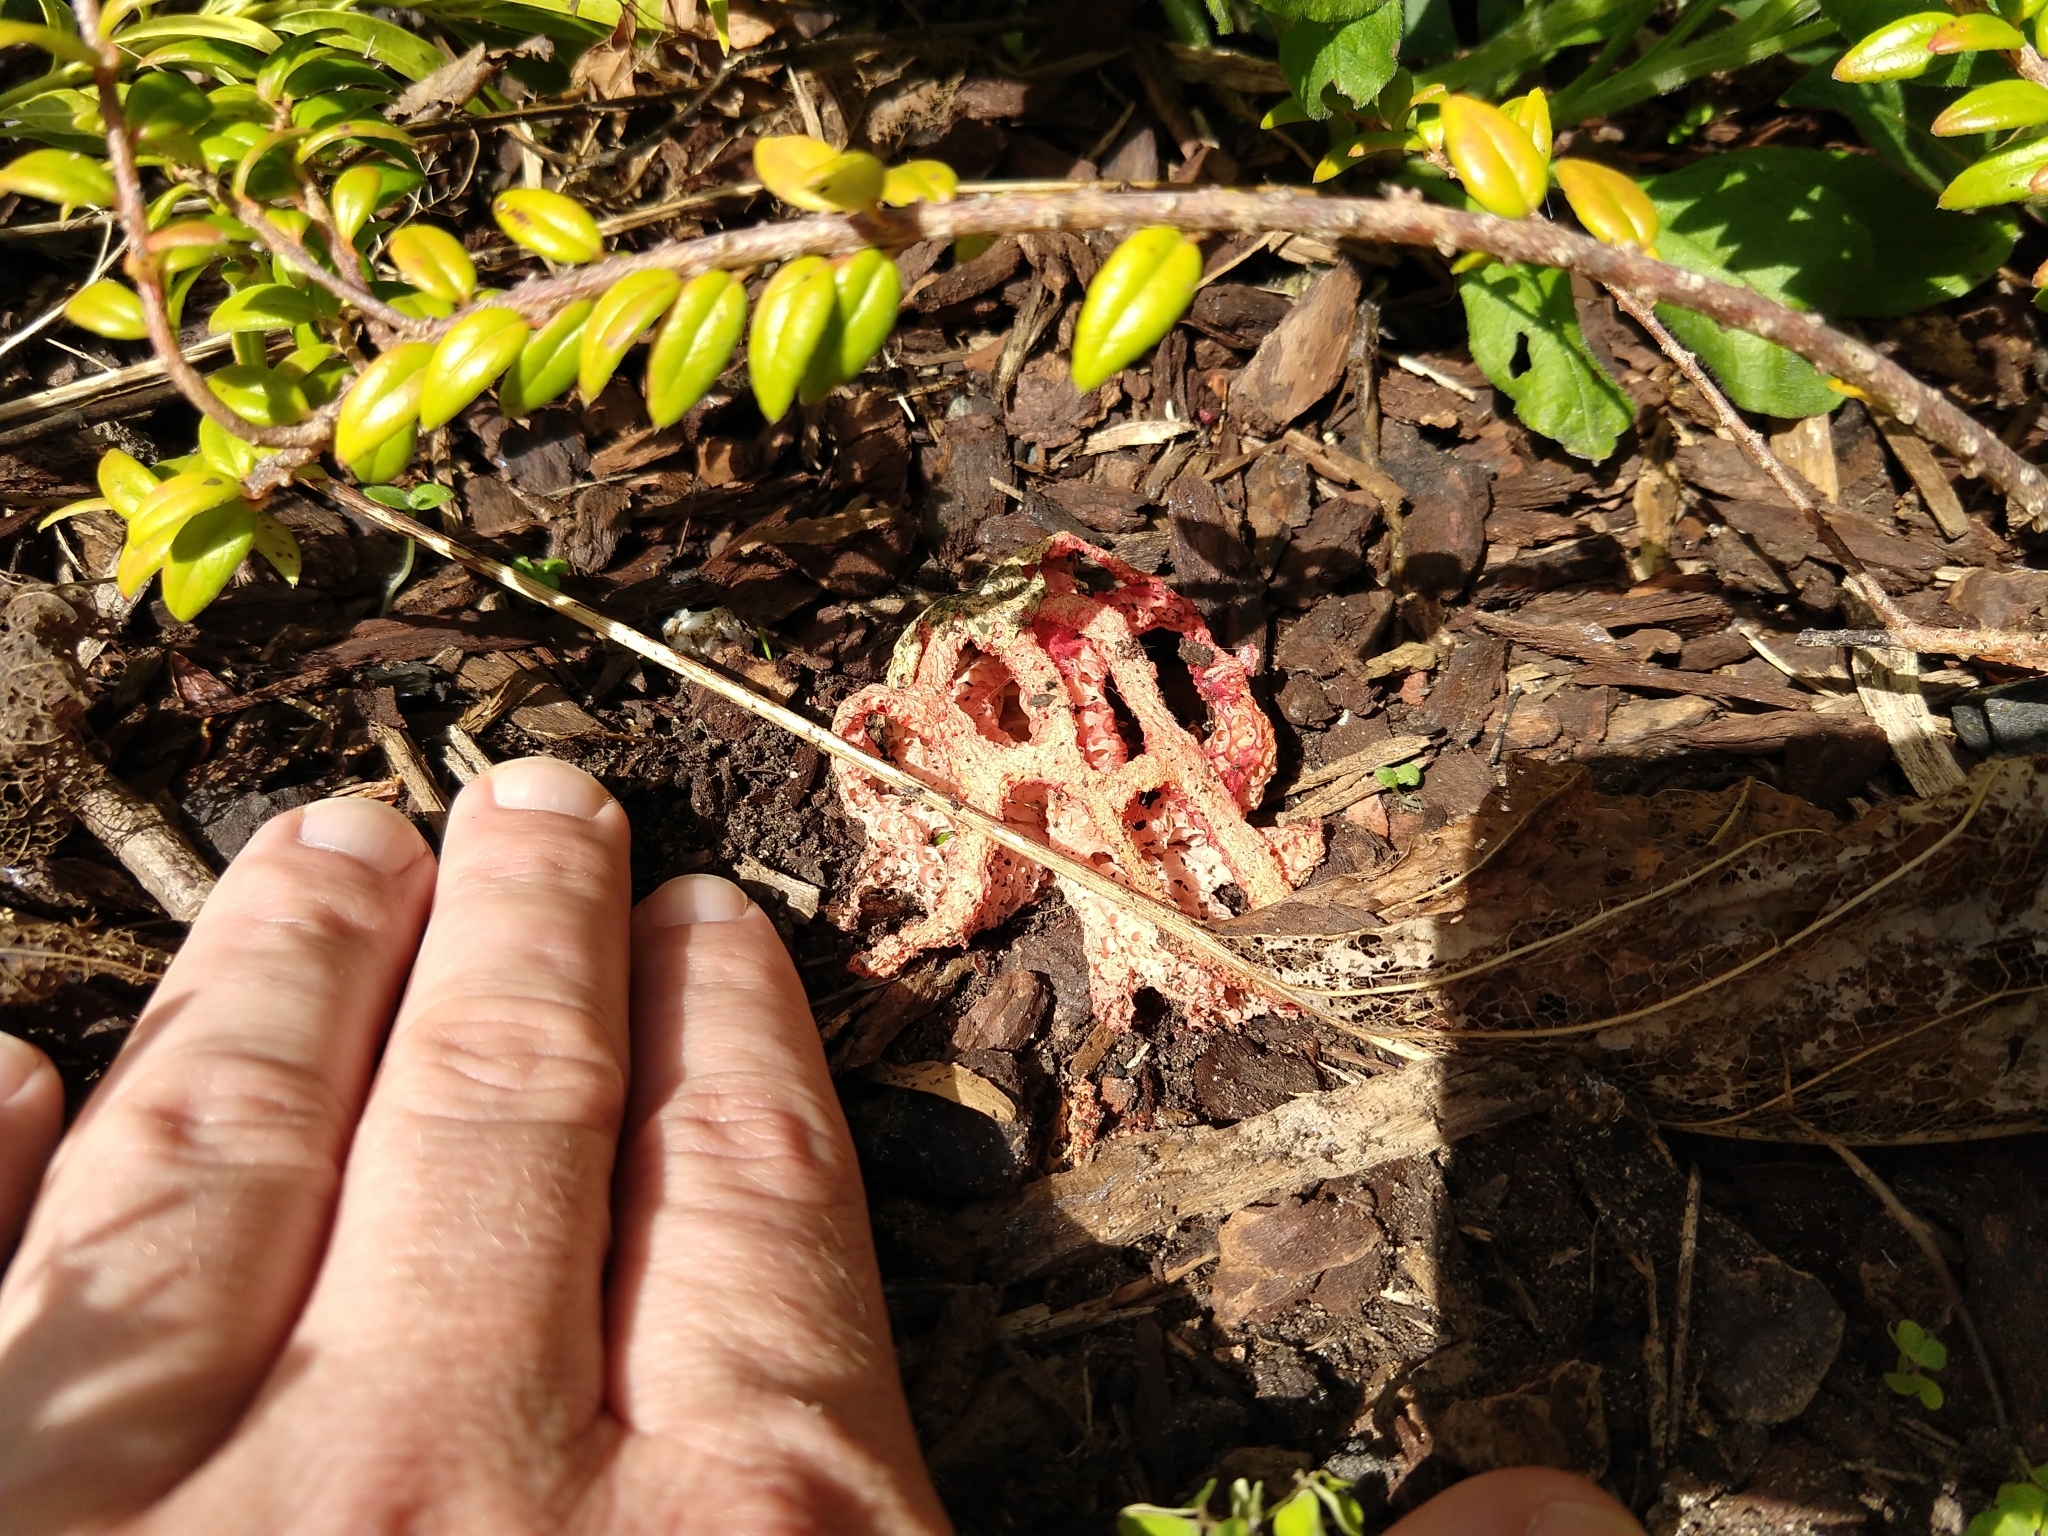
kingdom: Fungi
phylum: Basidiomycota
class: Agaricomycetes
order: Phallales
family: Phallaceae
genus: Clathrus
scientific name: Clathrus ruber
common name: Red cage
